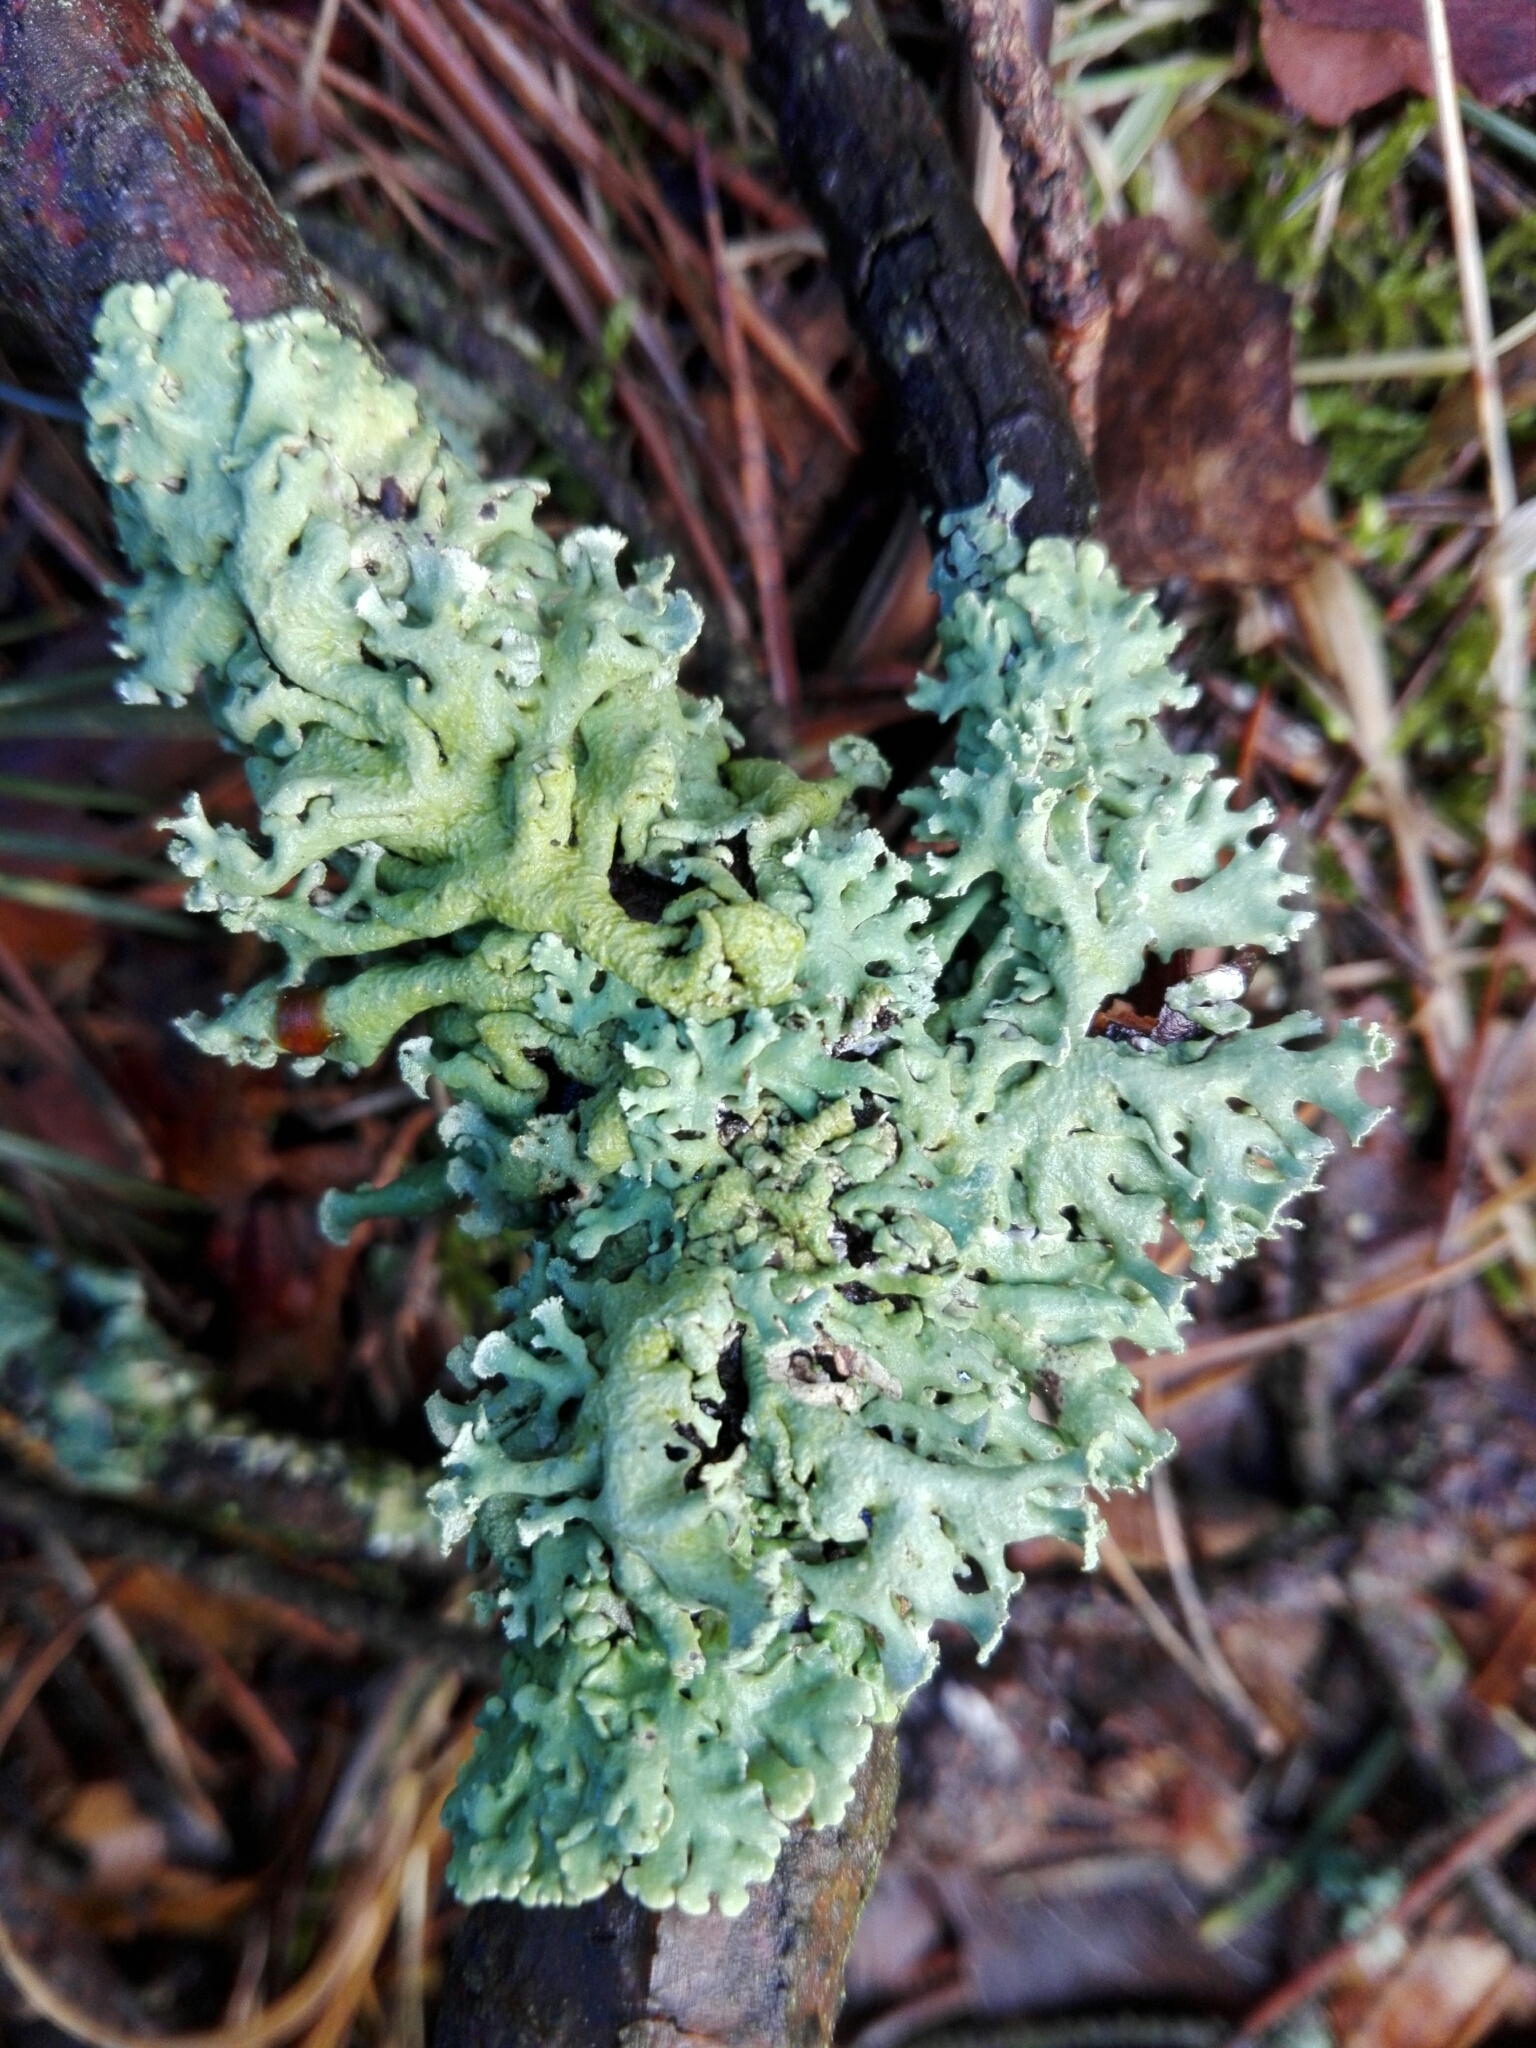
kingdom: Fungi
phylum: Ascomycota
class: Lecanoromycetes
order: Lecanorales
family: Parmeliaceae
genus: Hypogymnia
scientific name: Hypogymnia physodes
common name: Dark crottle
